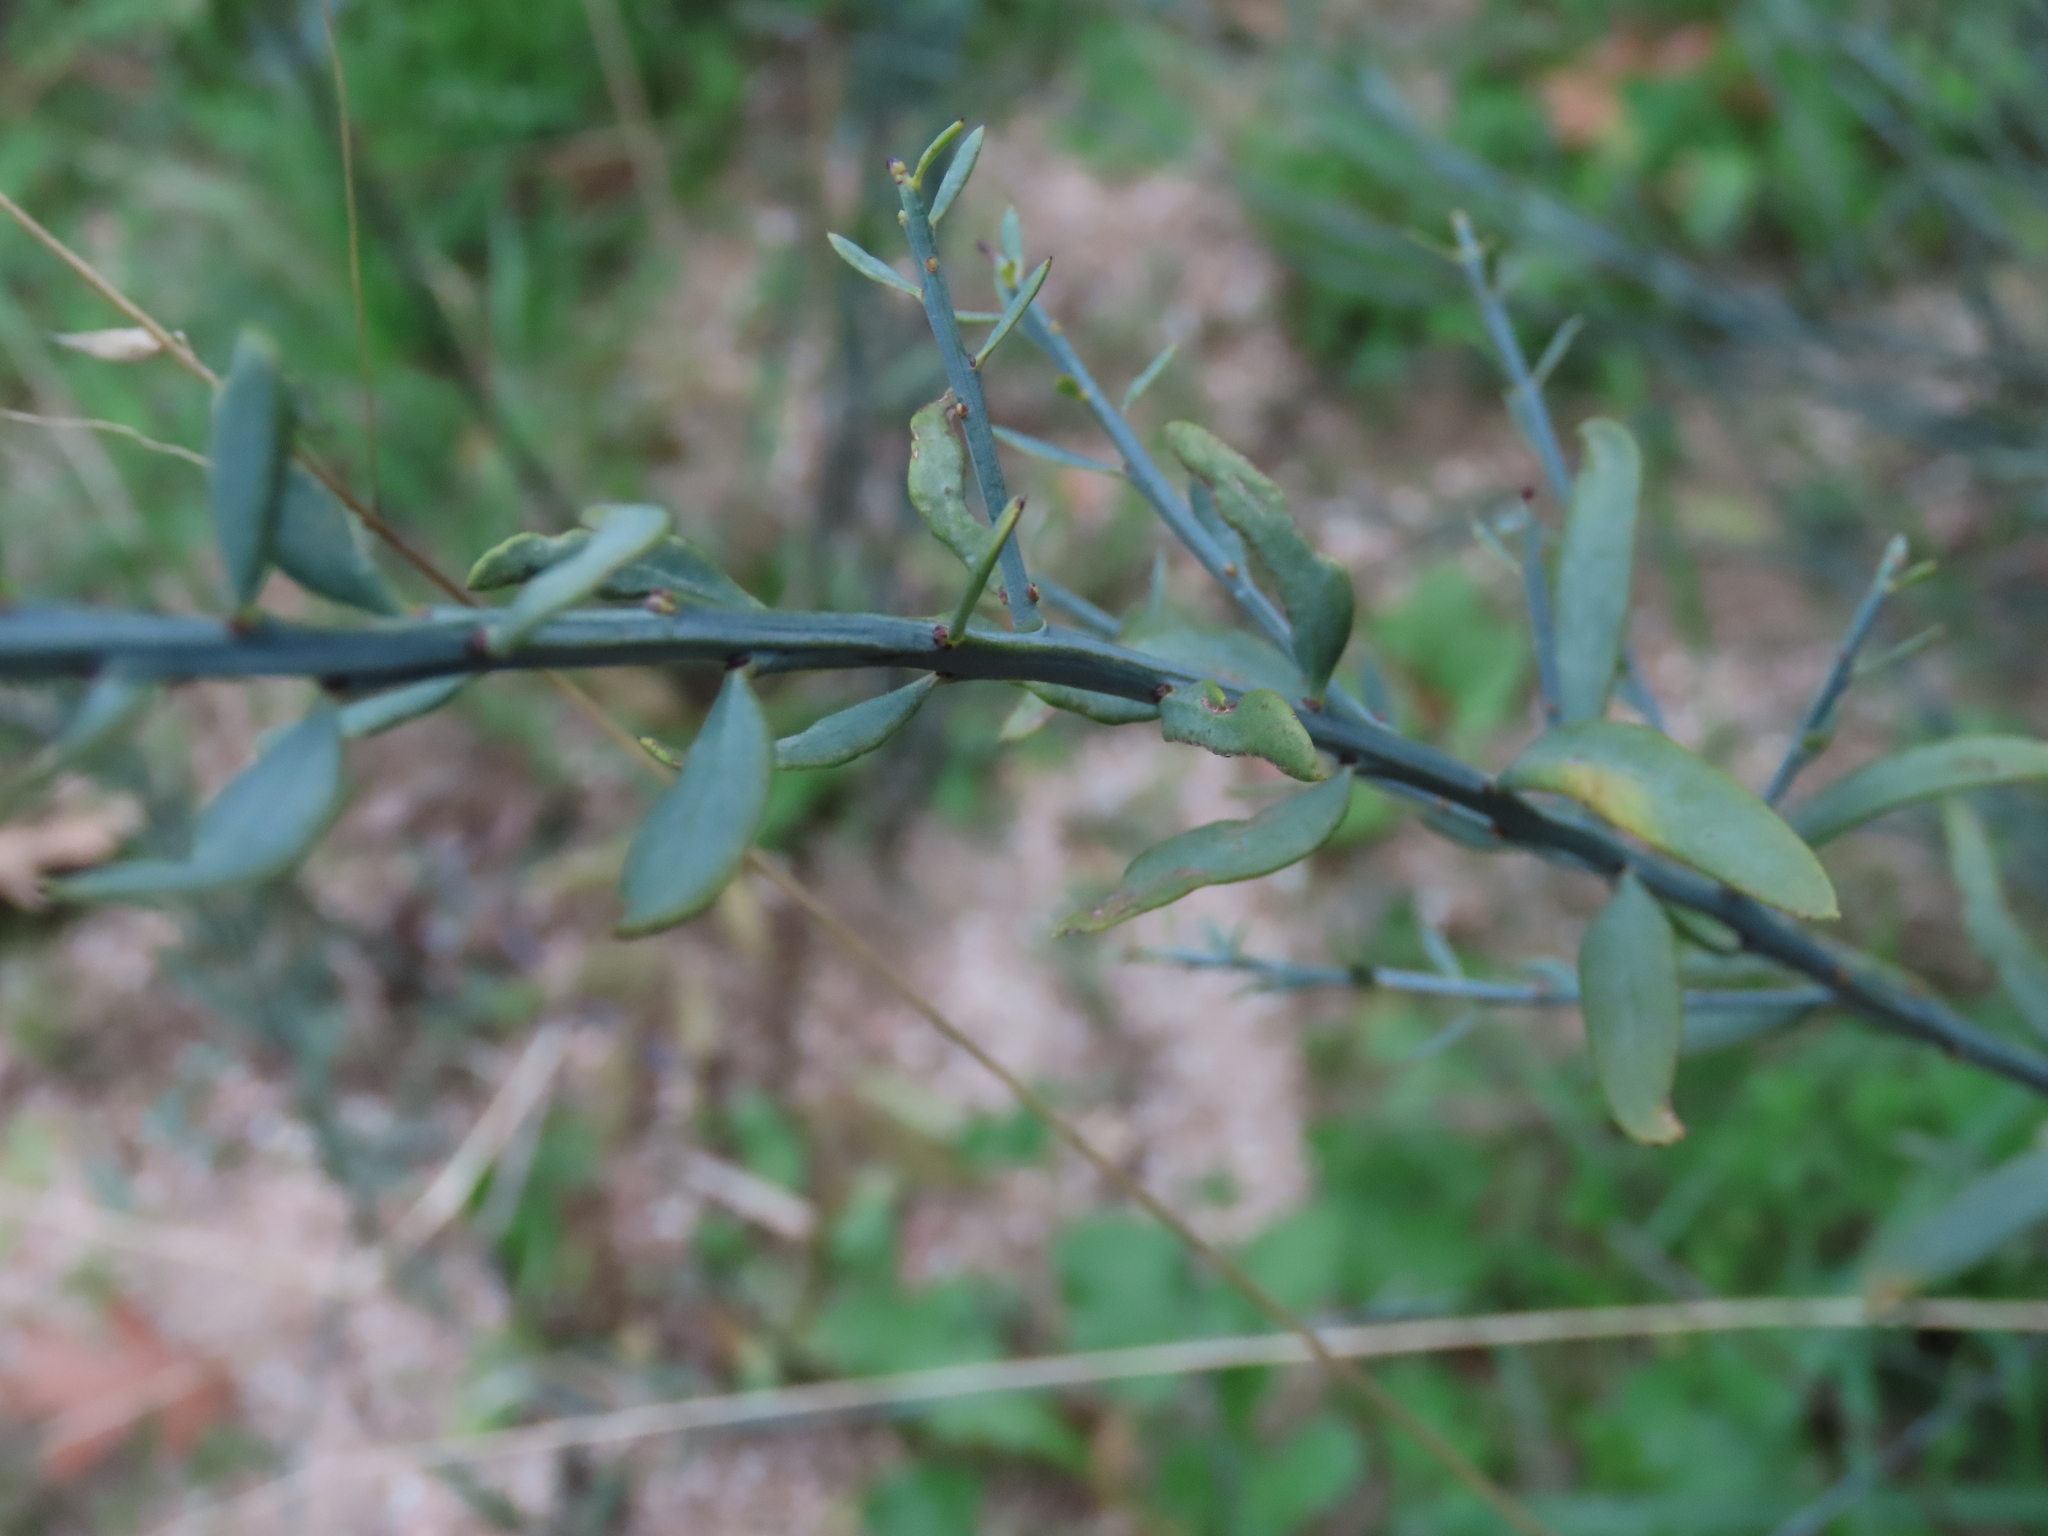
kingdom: Plantae
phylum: Tracheophyta
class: Magnoliopsida
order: Santalales
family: Santalaceae
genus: Osyris
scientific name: Osyris alba
